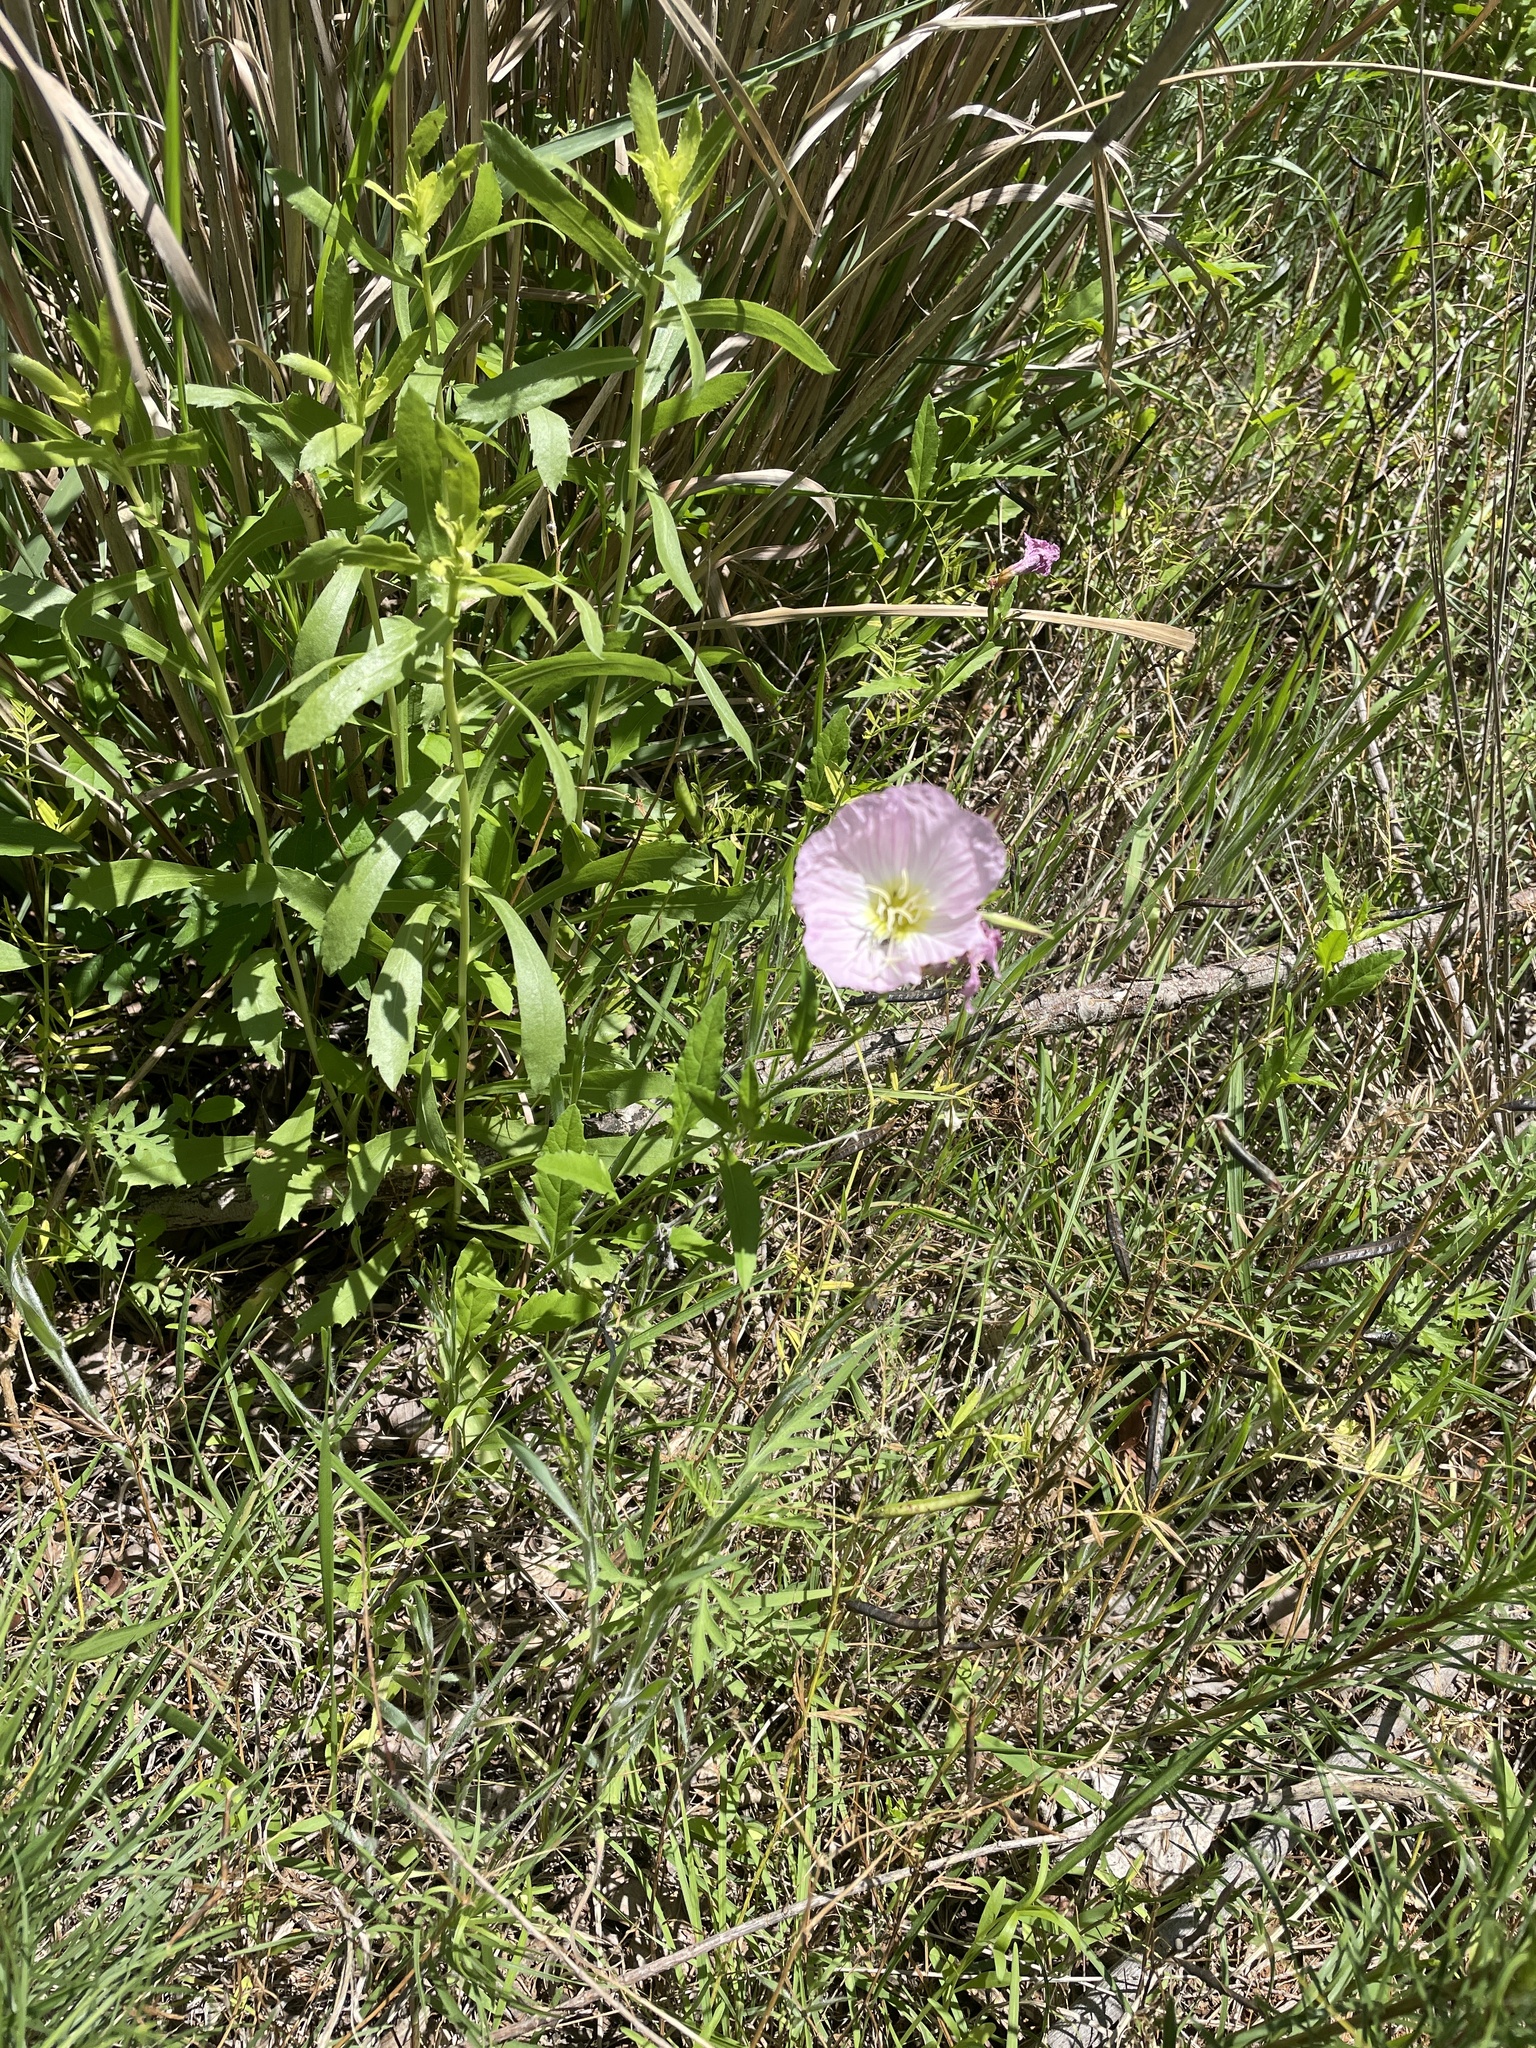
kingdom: Plantae
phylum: Tracheophyta
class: Magnoliopsida
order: Myrtales
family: Onagraceae
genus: Oenothera
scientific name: Oenothera speciosa
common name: White evening-primrose
